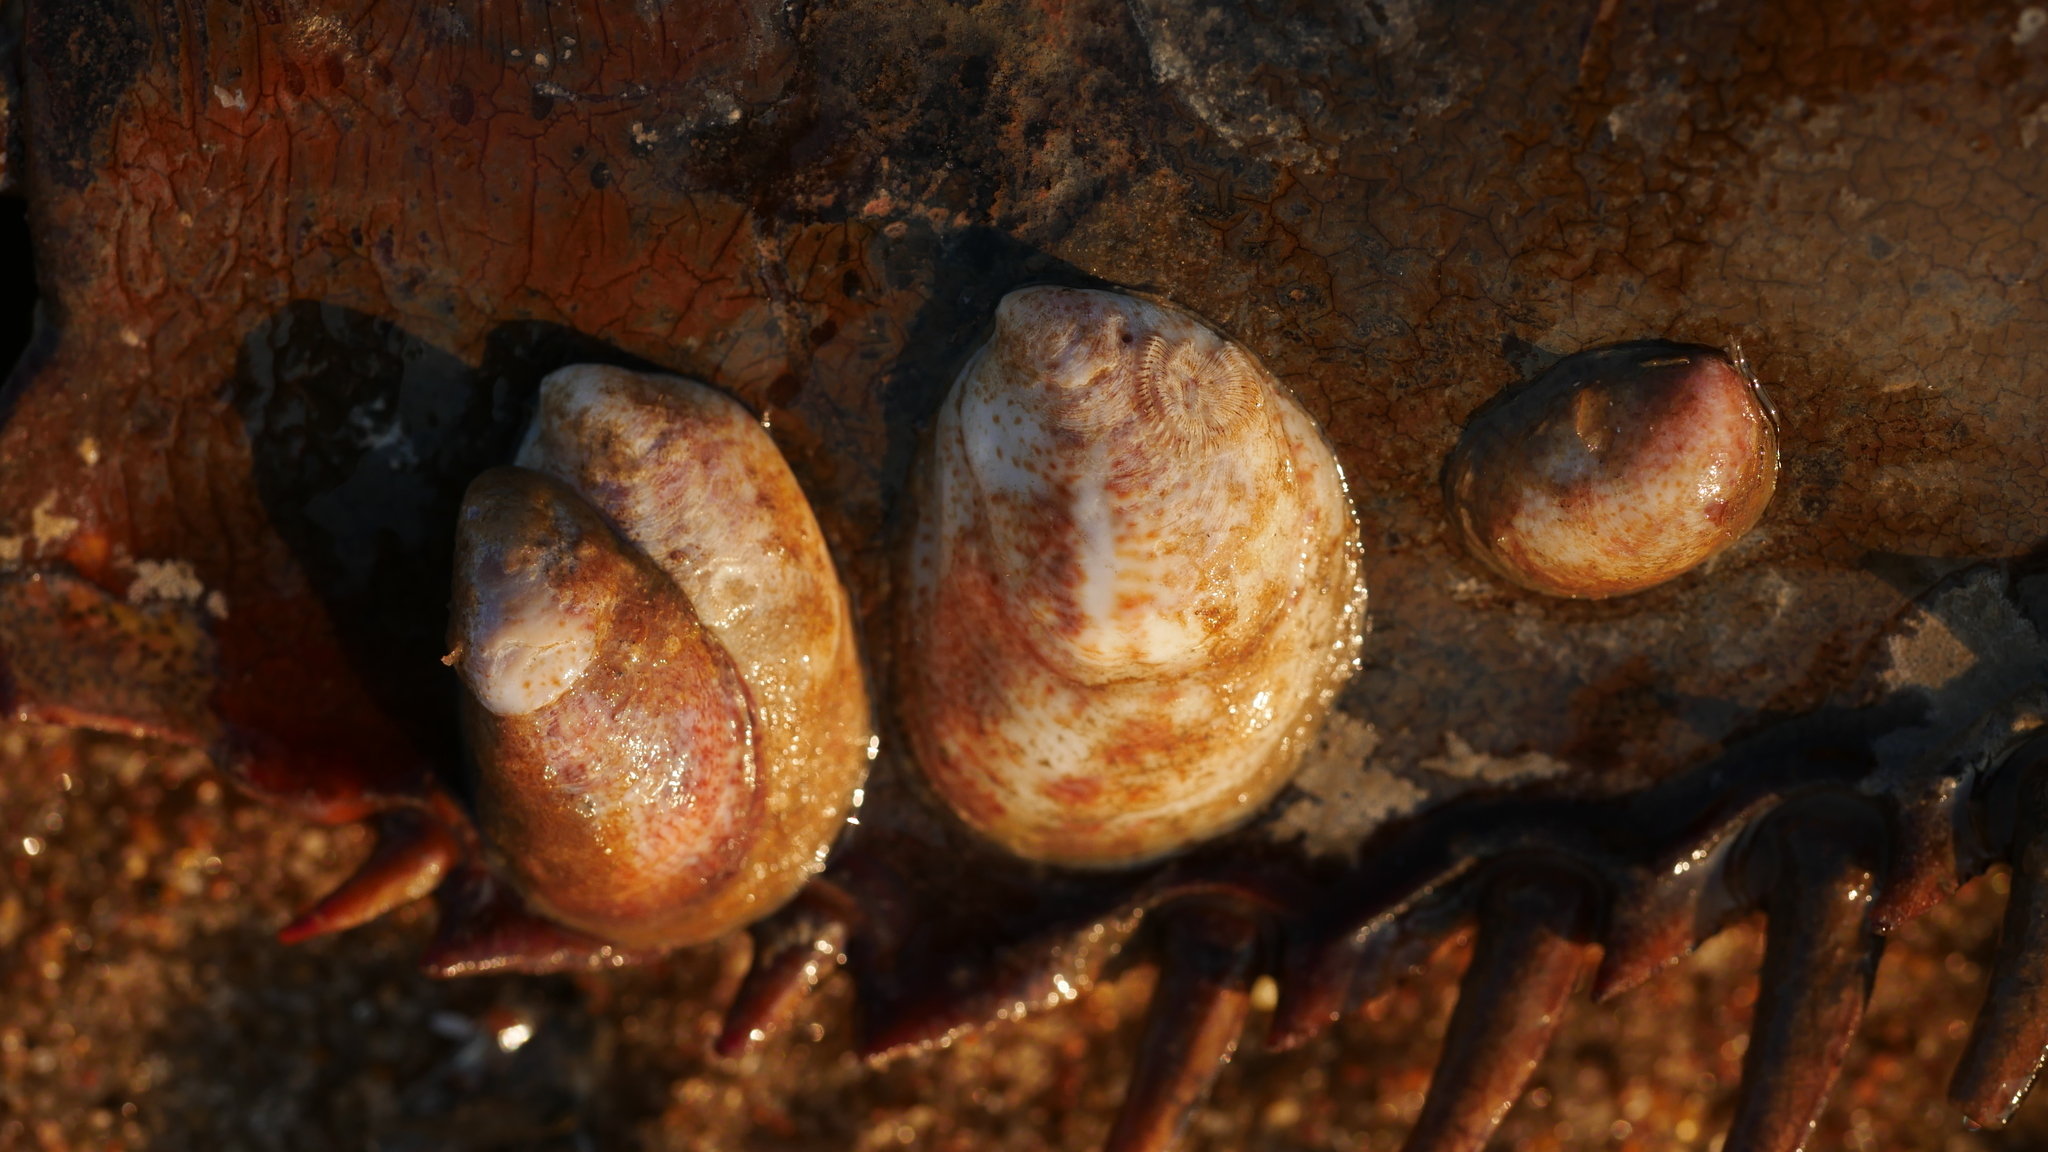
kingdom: Animalia
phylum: Mollusca
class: Gastropoda
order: Littorinimorpha
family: Calyptraeidae
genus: Crepidula
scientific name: Crepidula fornicata
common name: Slipper limpet
